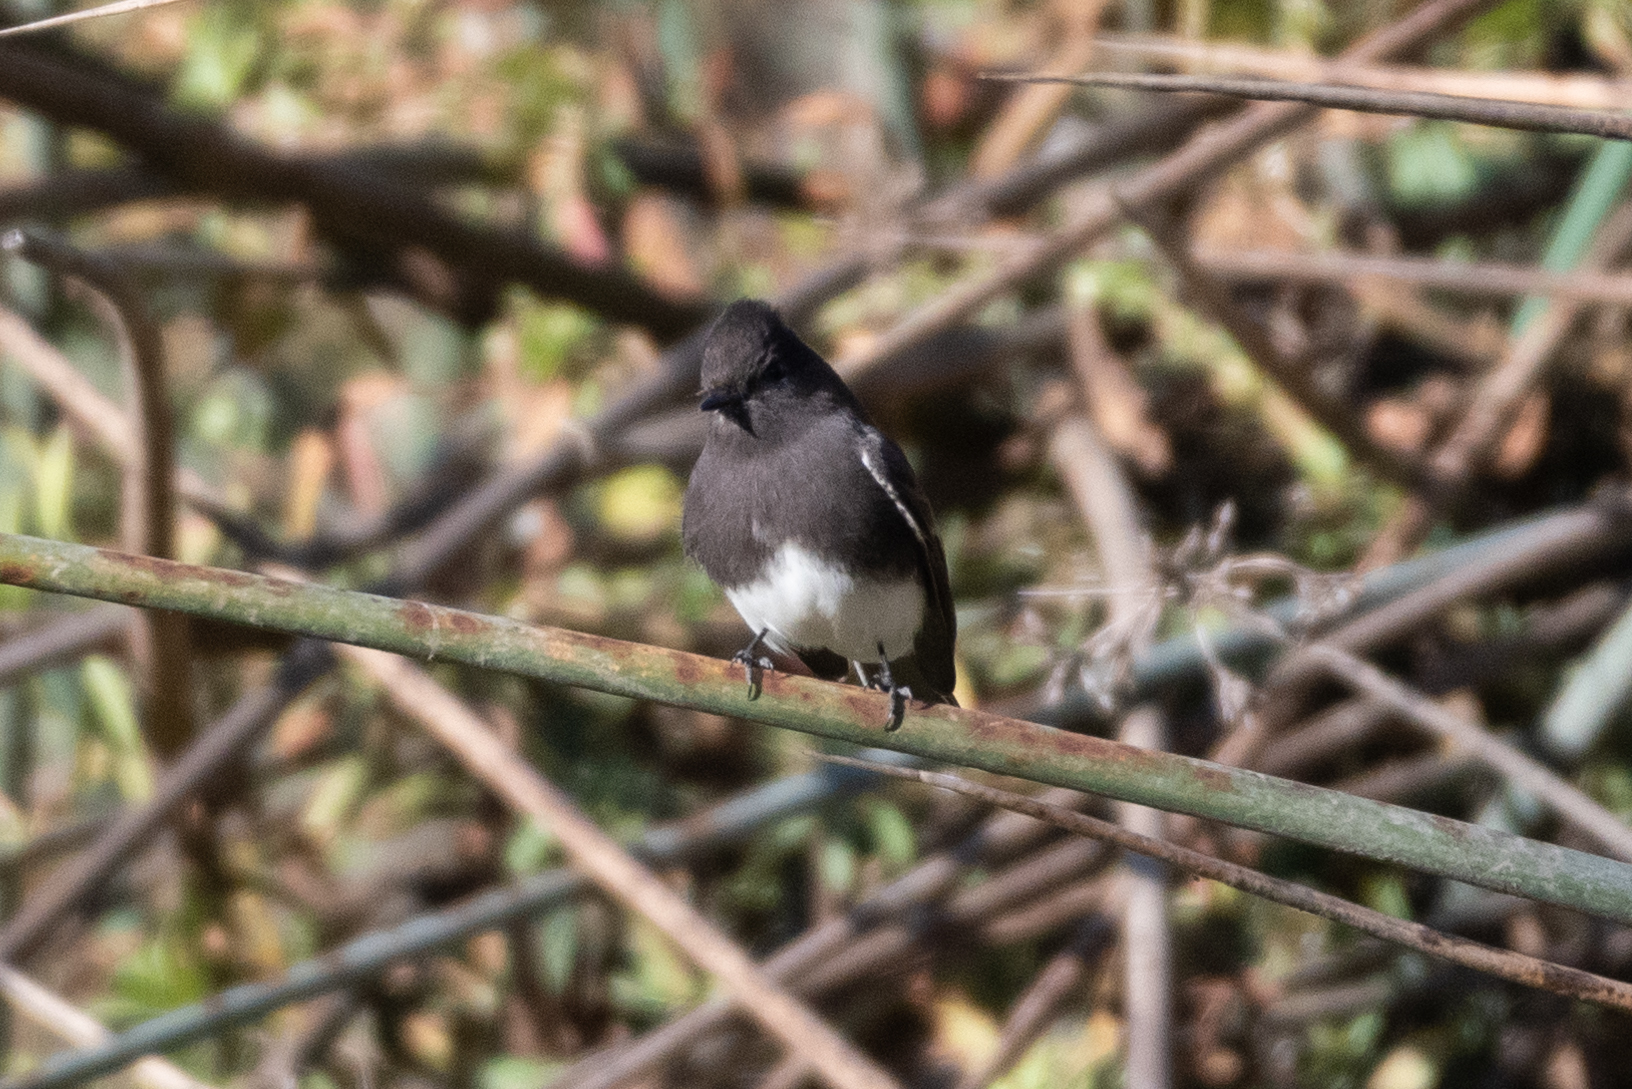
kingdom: Animalia
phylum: Chordata
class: Aves
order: Passeriformes
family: Tyrannidae
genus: Sayornis
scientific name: Sayornis nigricans
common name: Black phoebe
